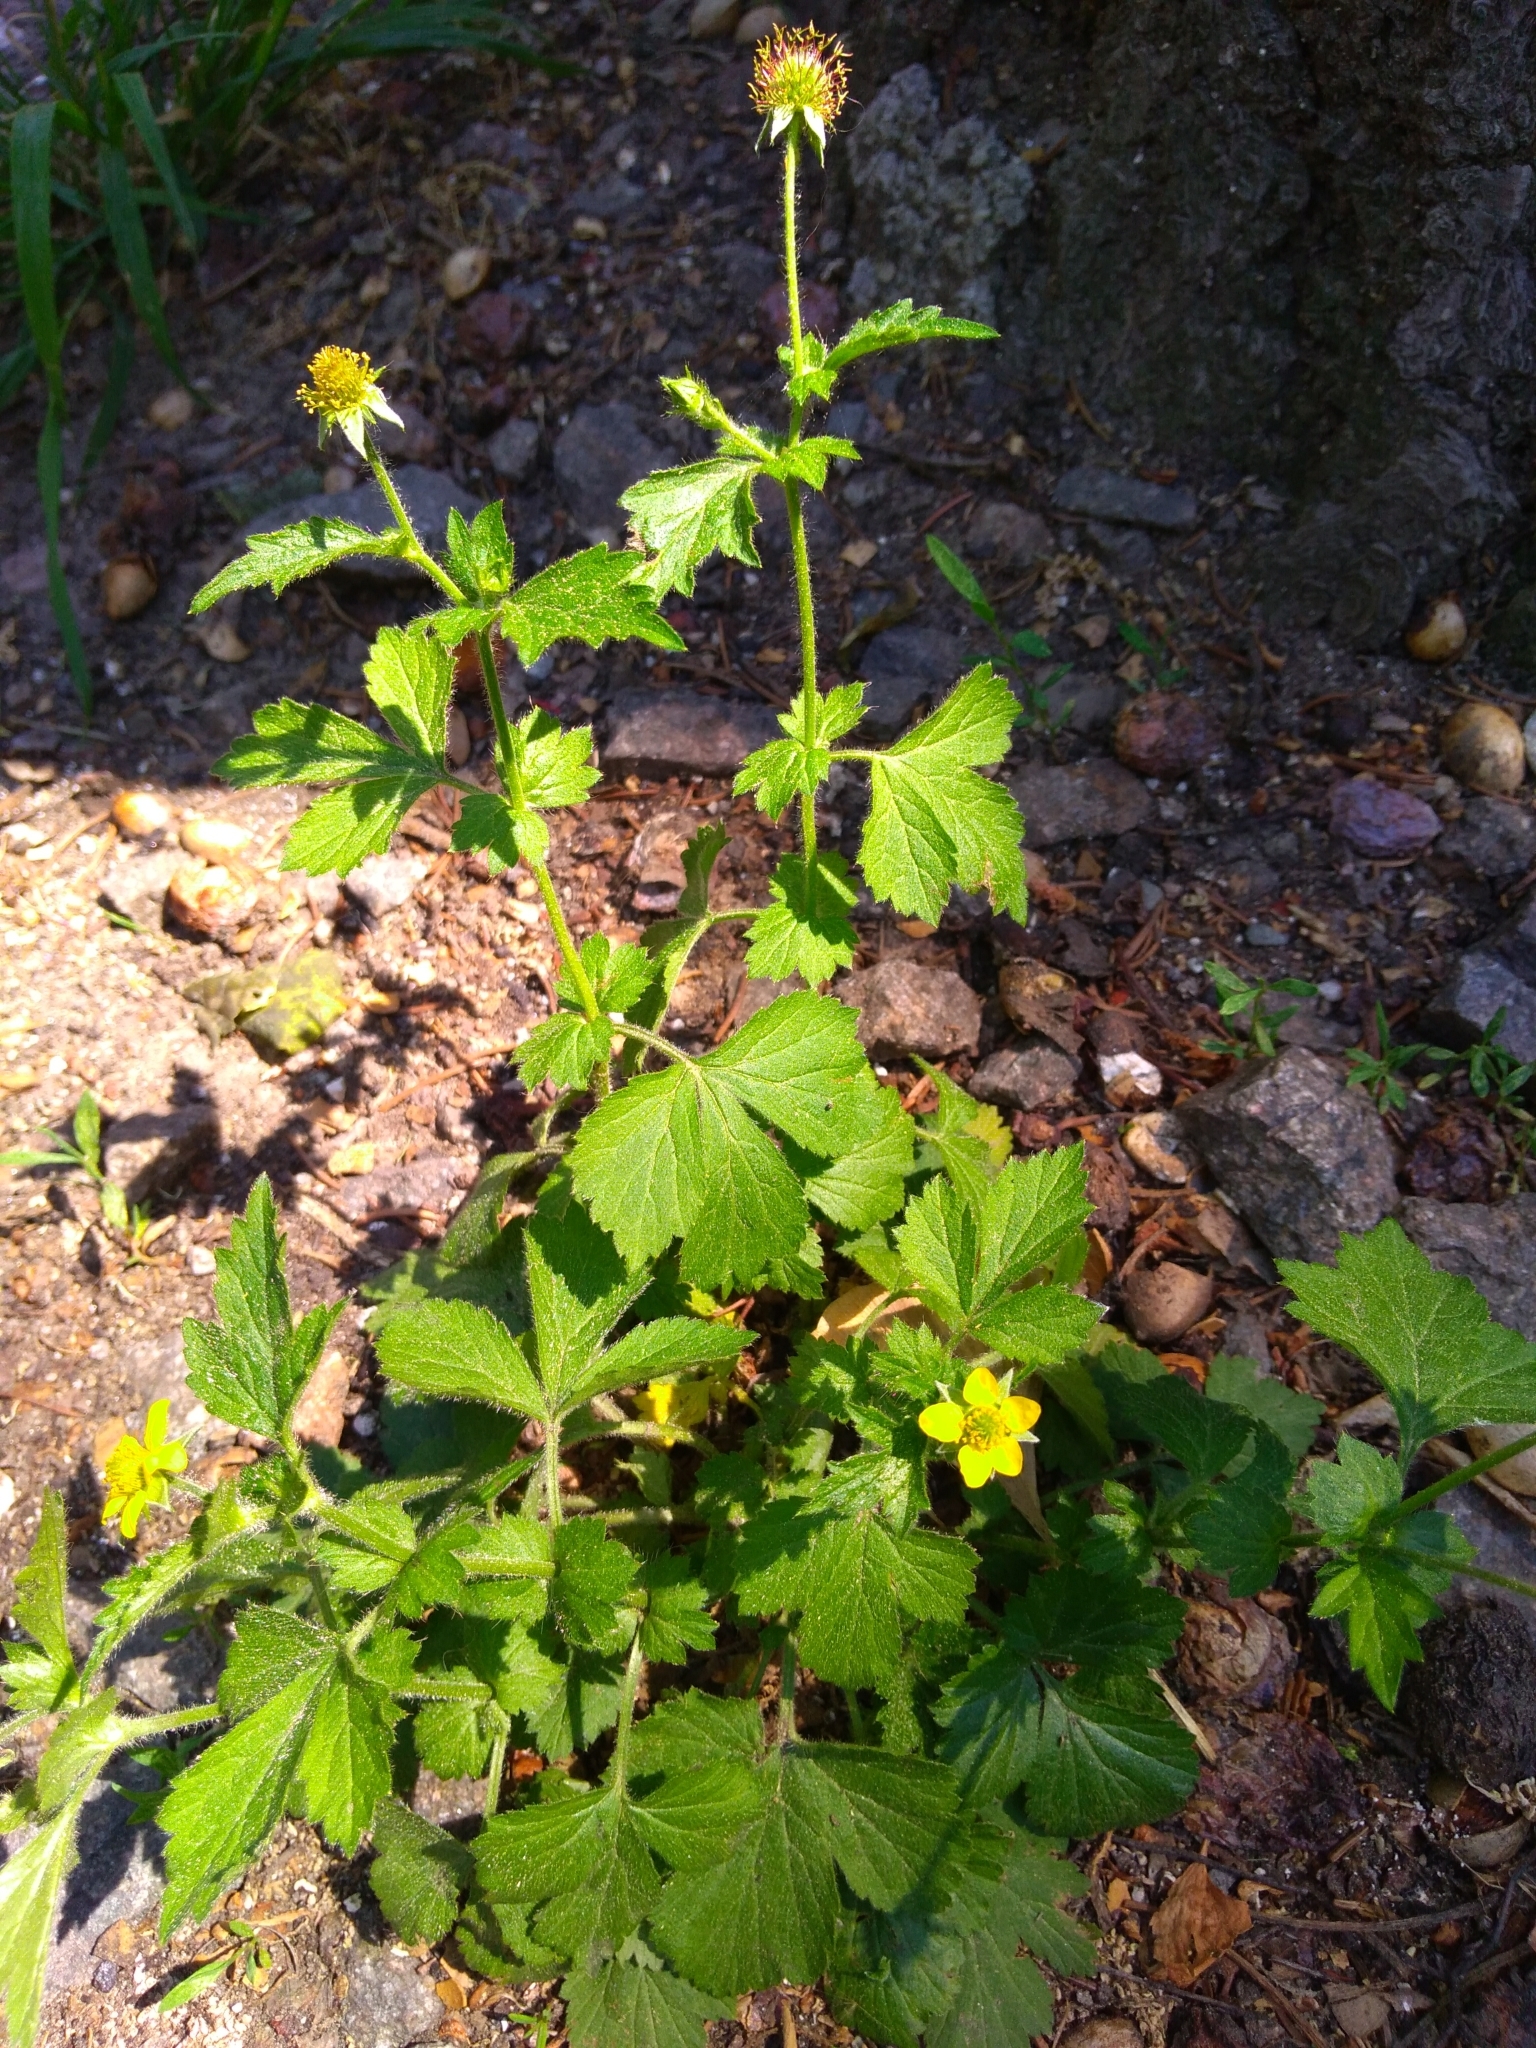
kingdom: Plantae
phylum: Tracheophyta
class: Magnoliopsida
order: Rosales
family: Rosaceae
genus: Geum
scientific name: Geum urbanum
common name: Wood avens
